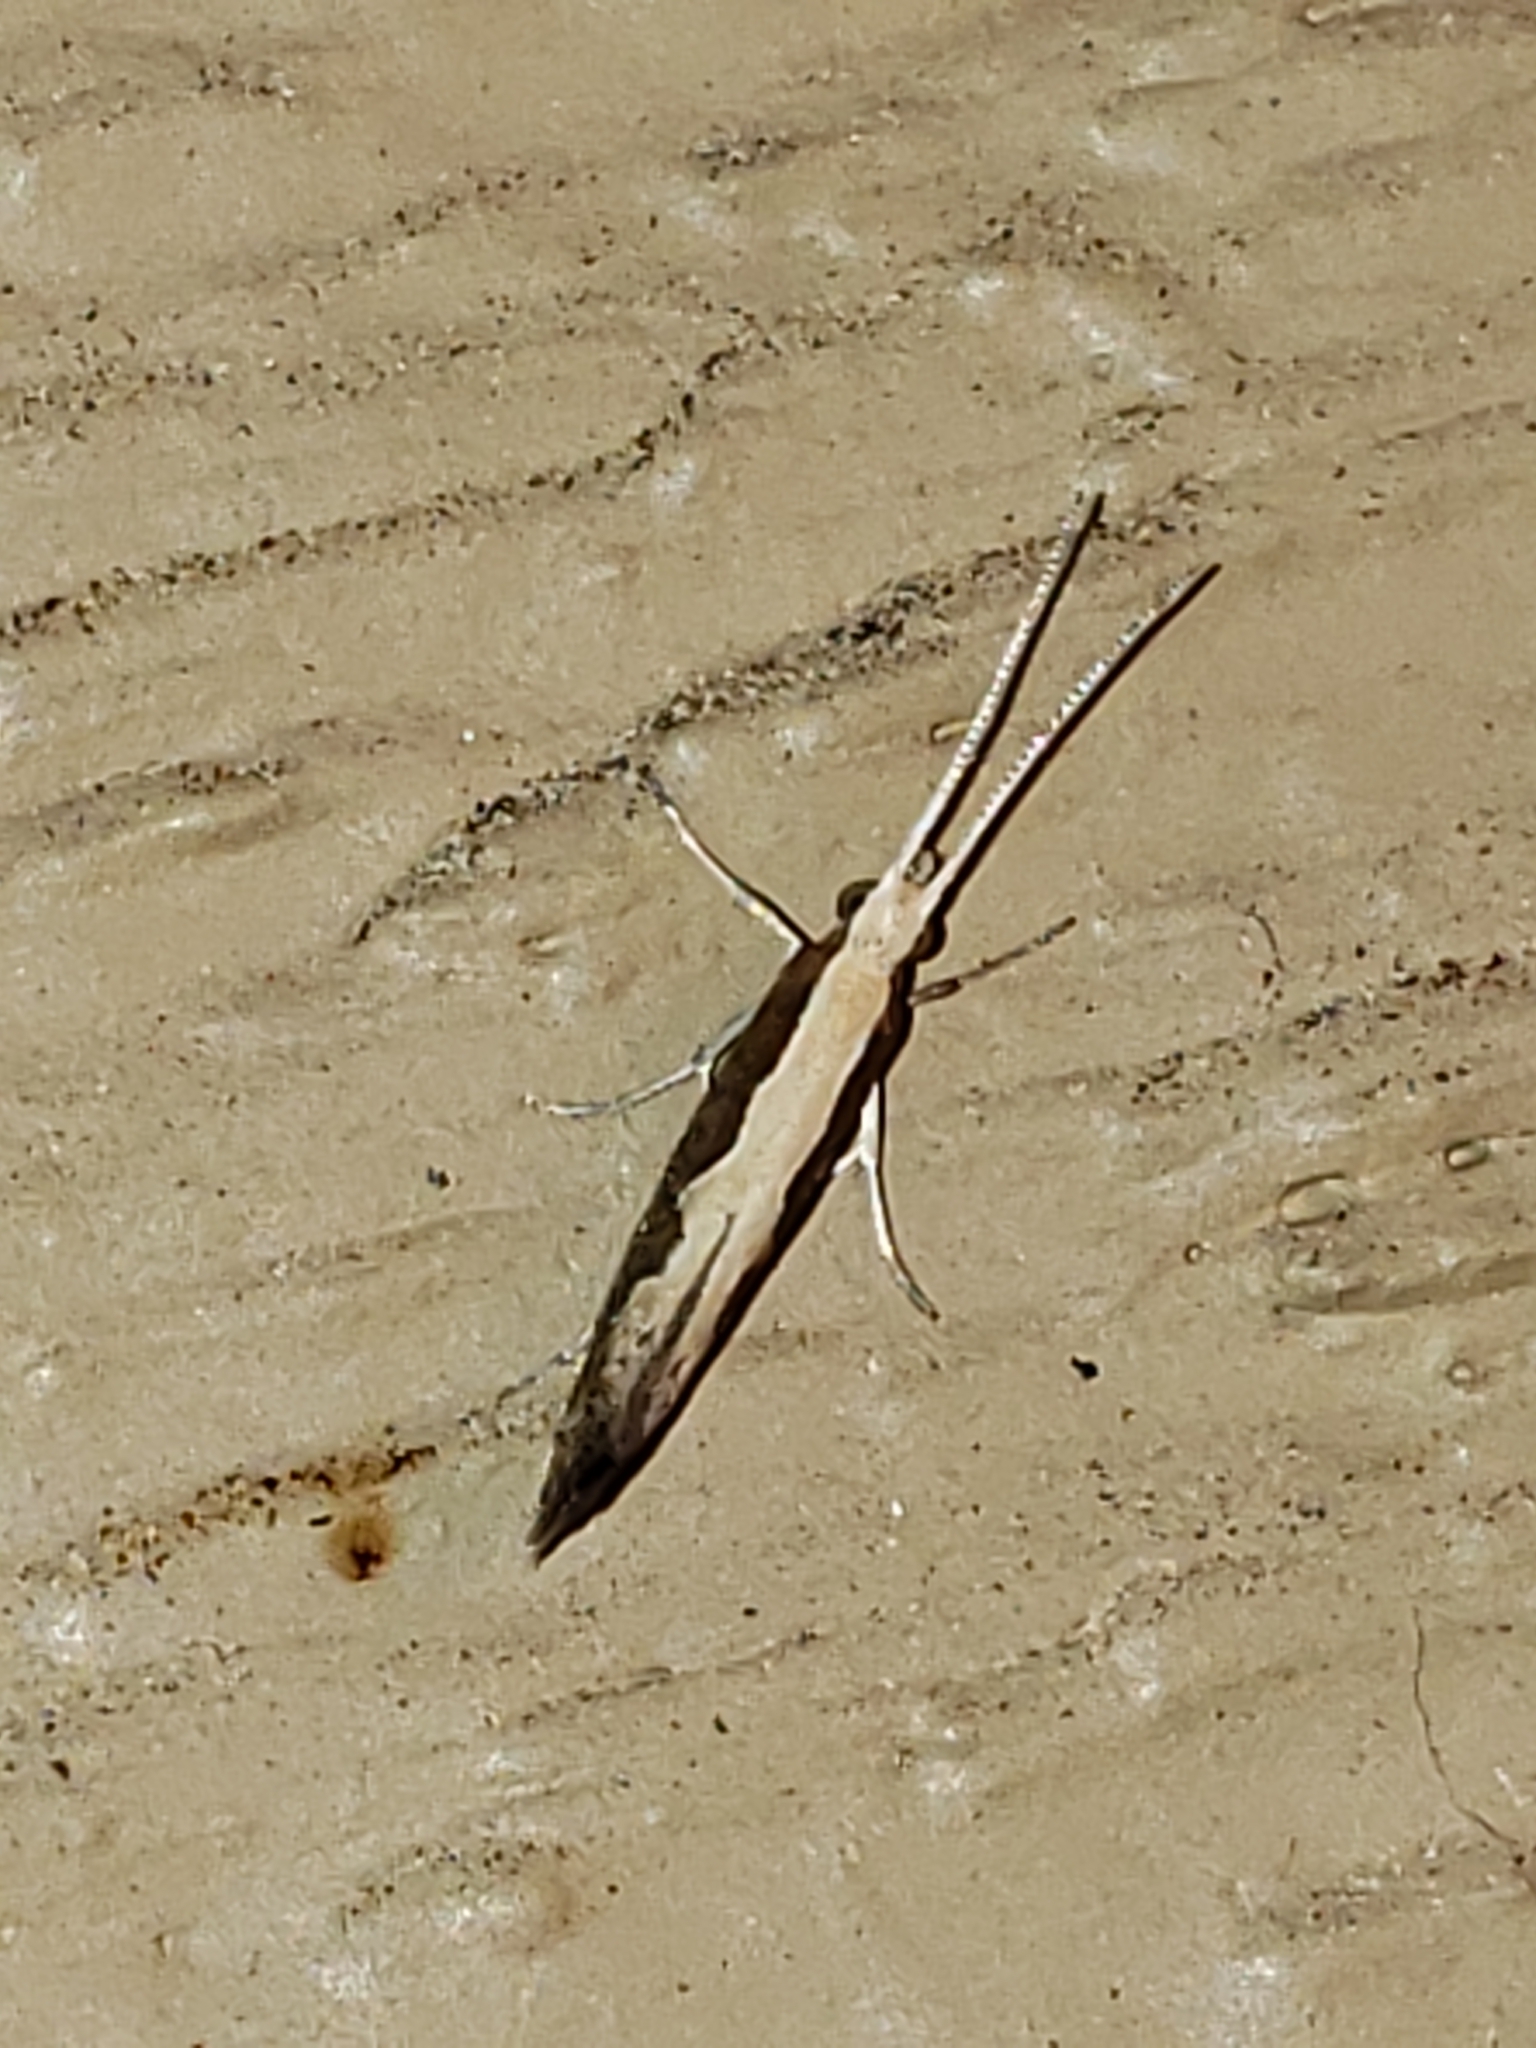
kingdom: Animalia
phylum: Arthropoda
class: Insecta
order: Lepidoptera
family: Plutellidae
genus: Plutella
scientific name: Plutella xylostella
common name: Diamond-back moth
